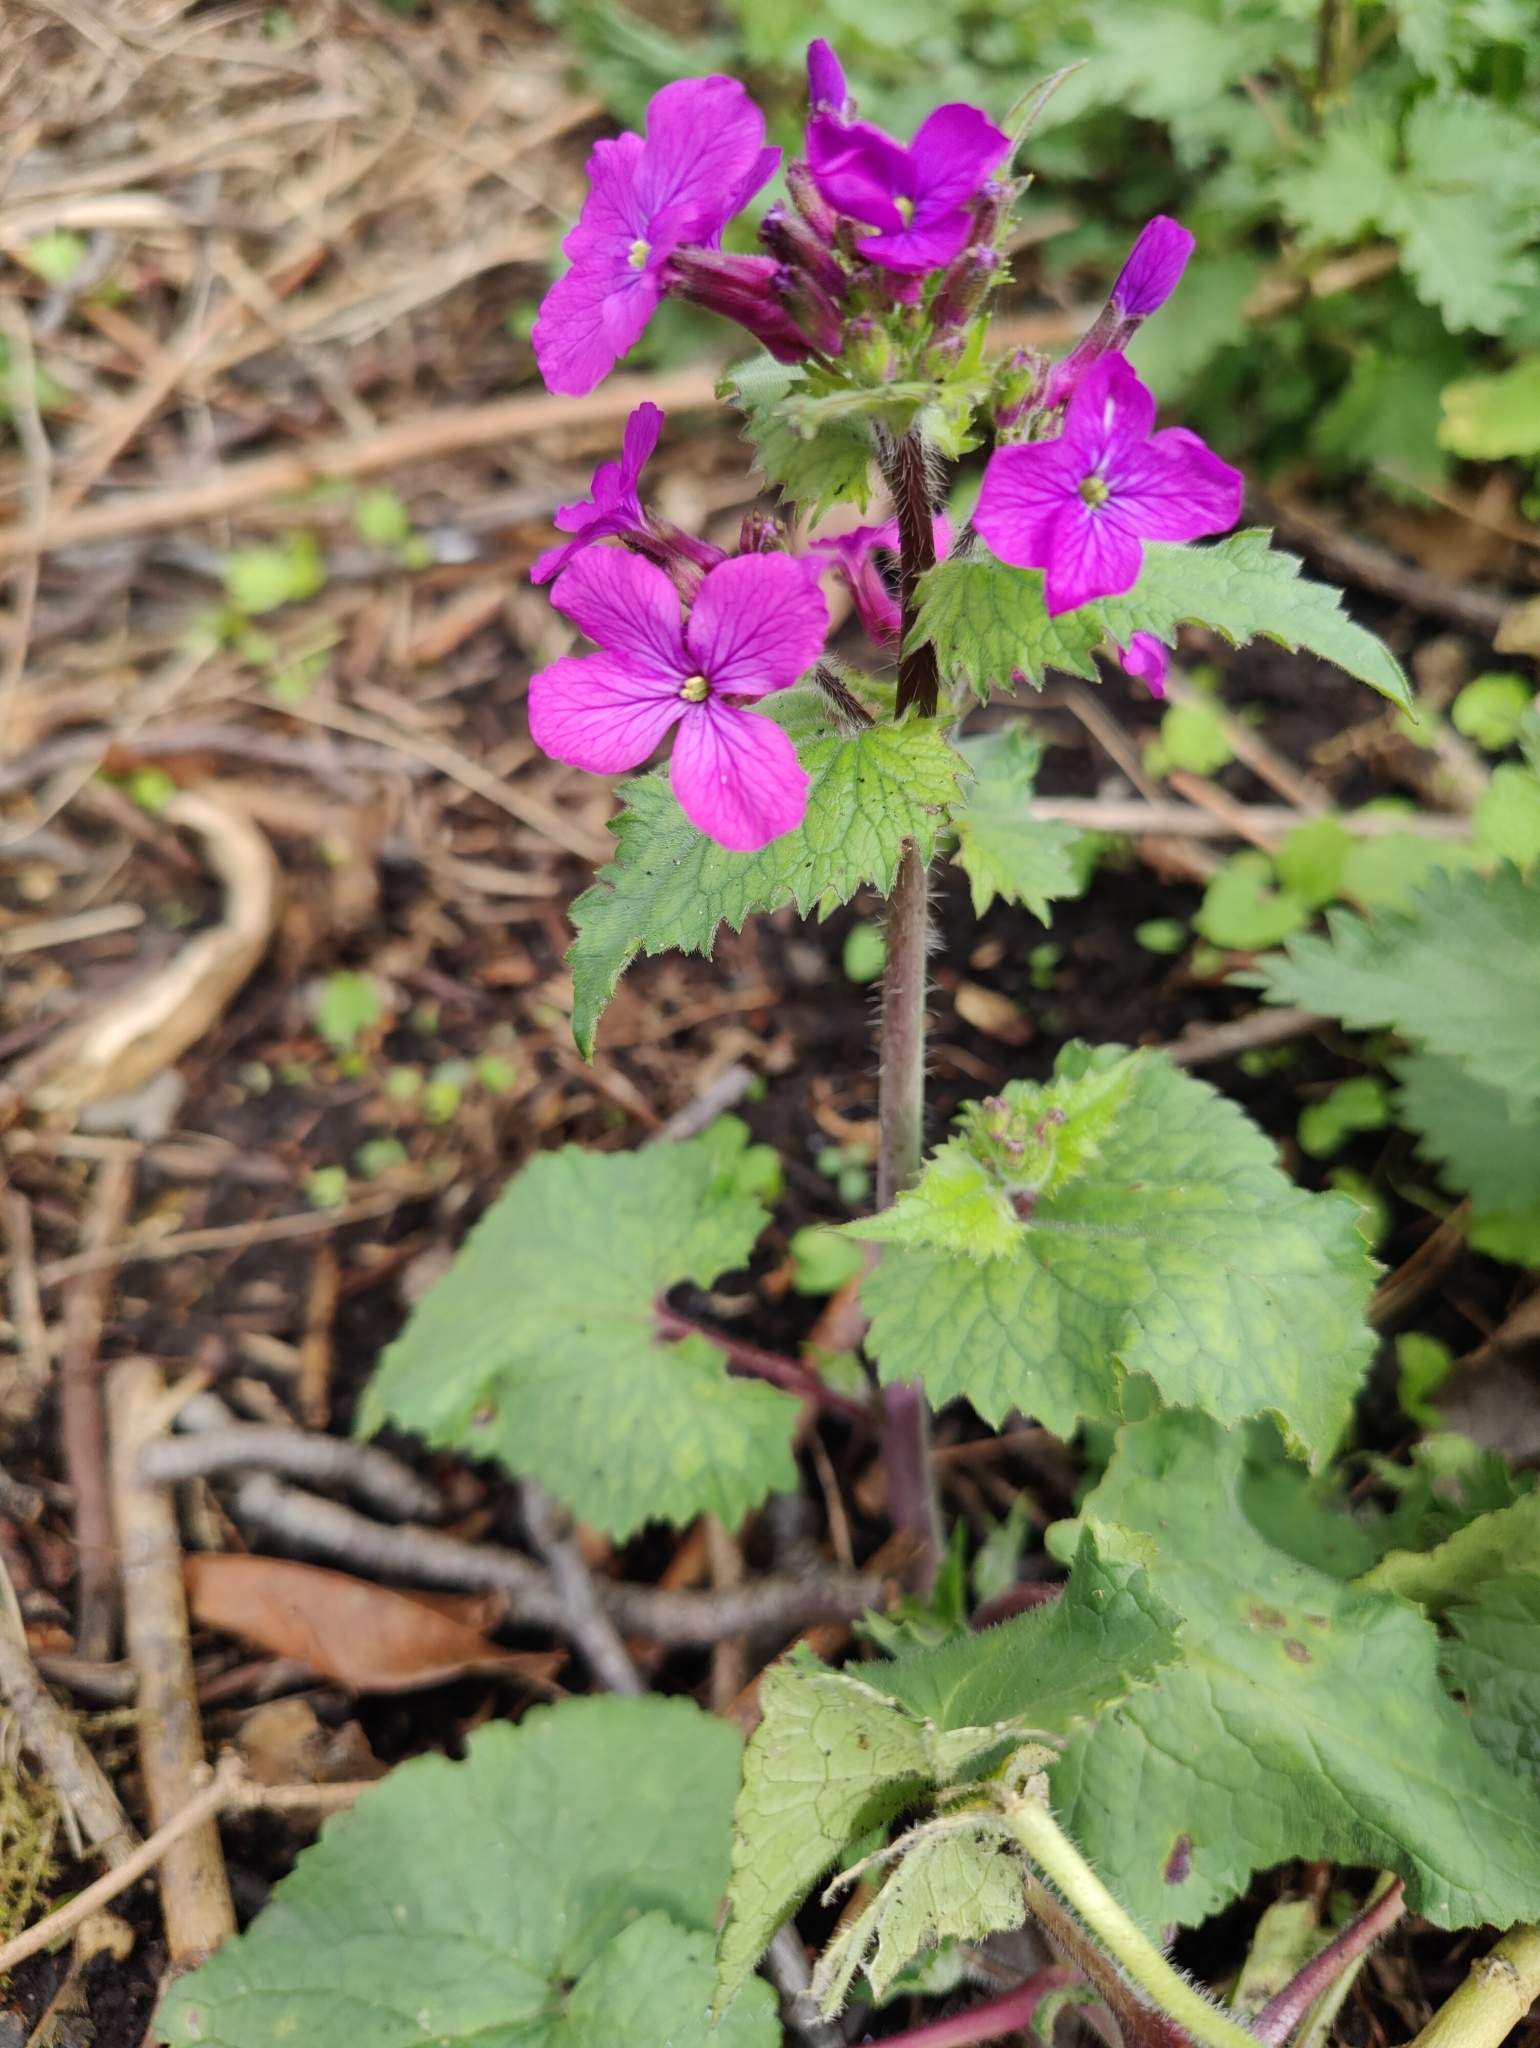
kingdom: Plantae
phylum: Tracheophyta
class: Magnoliopsida
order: Brassicales
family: Brassicaceae
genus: Lunaria
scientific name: Lunaria annua
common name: Honesty
